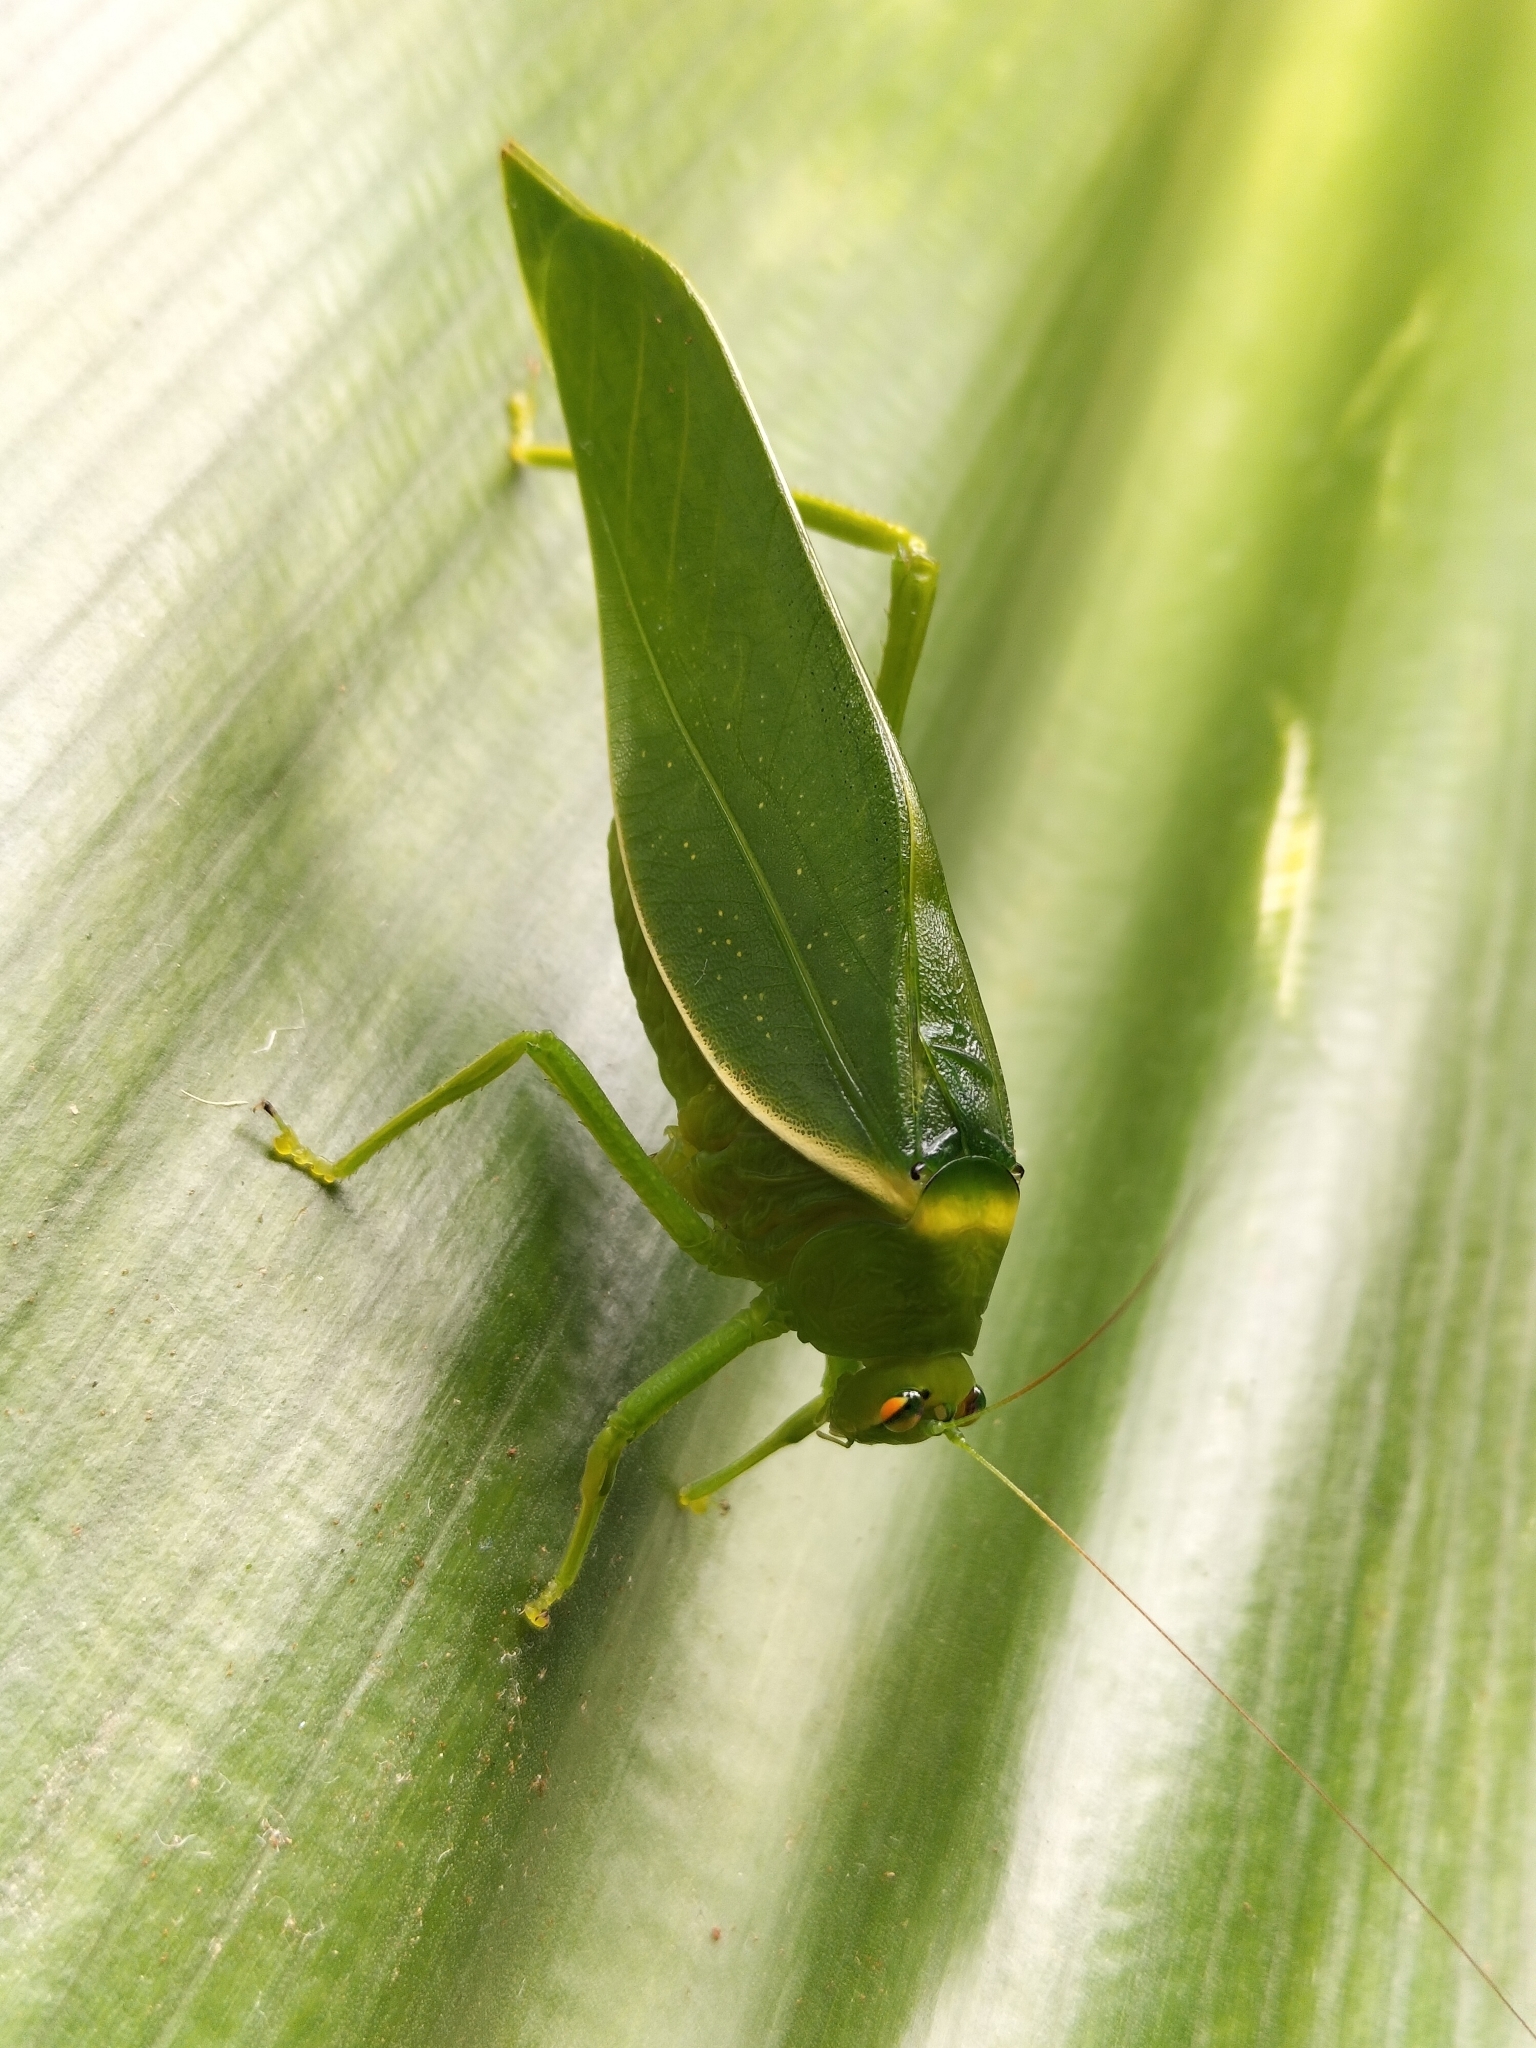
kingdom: Animalia
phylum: Arthropoda
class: Insecta
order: Orthoptera
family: Tettigoniidae
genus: Paracaedicia
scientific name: Paracaedicia serrata
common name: Serrated bush katydid
